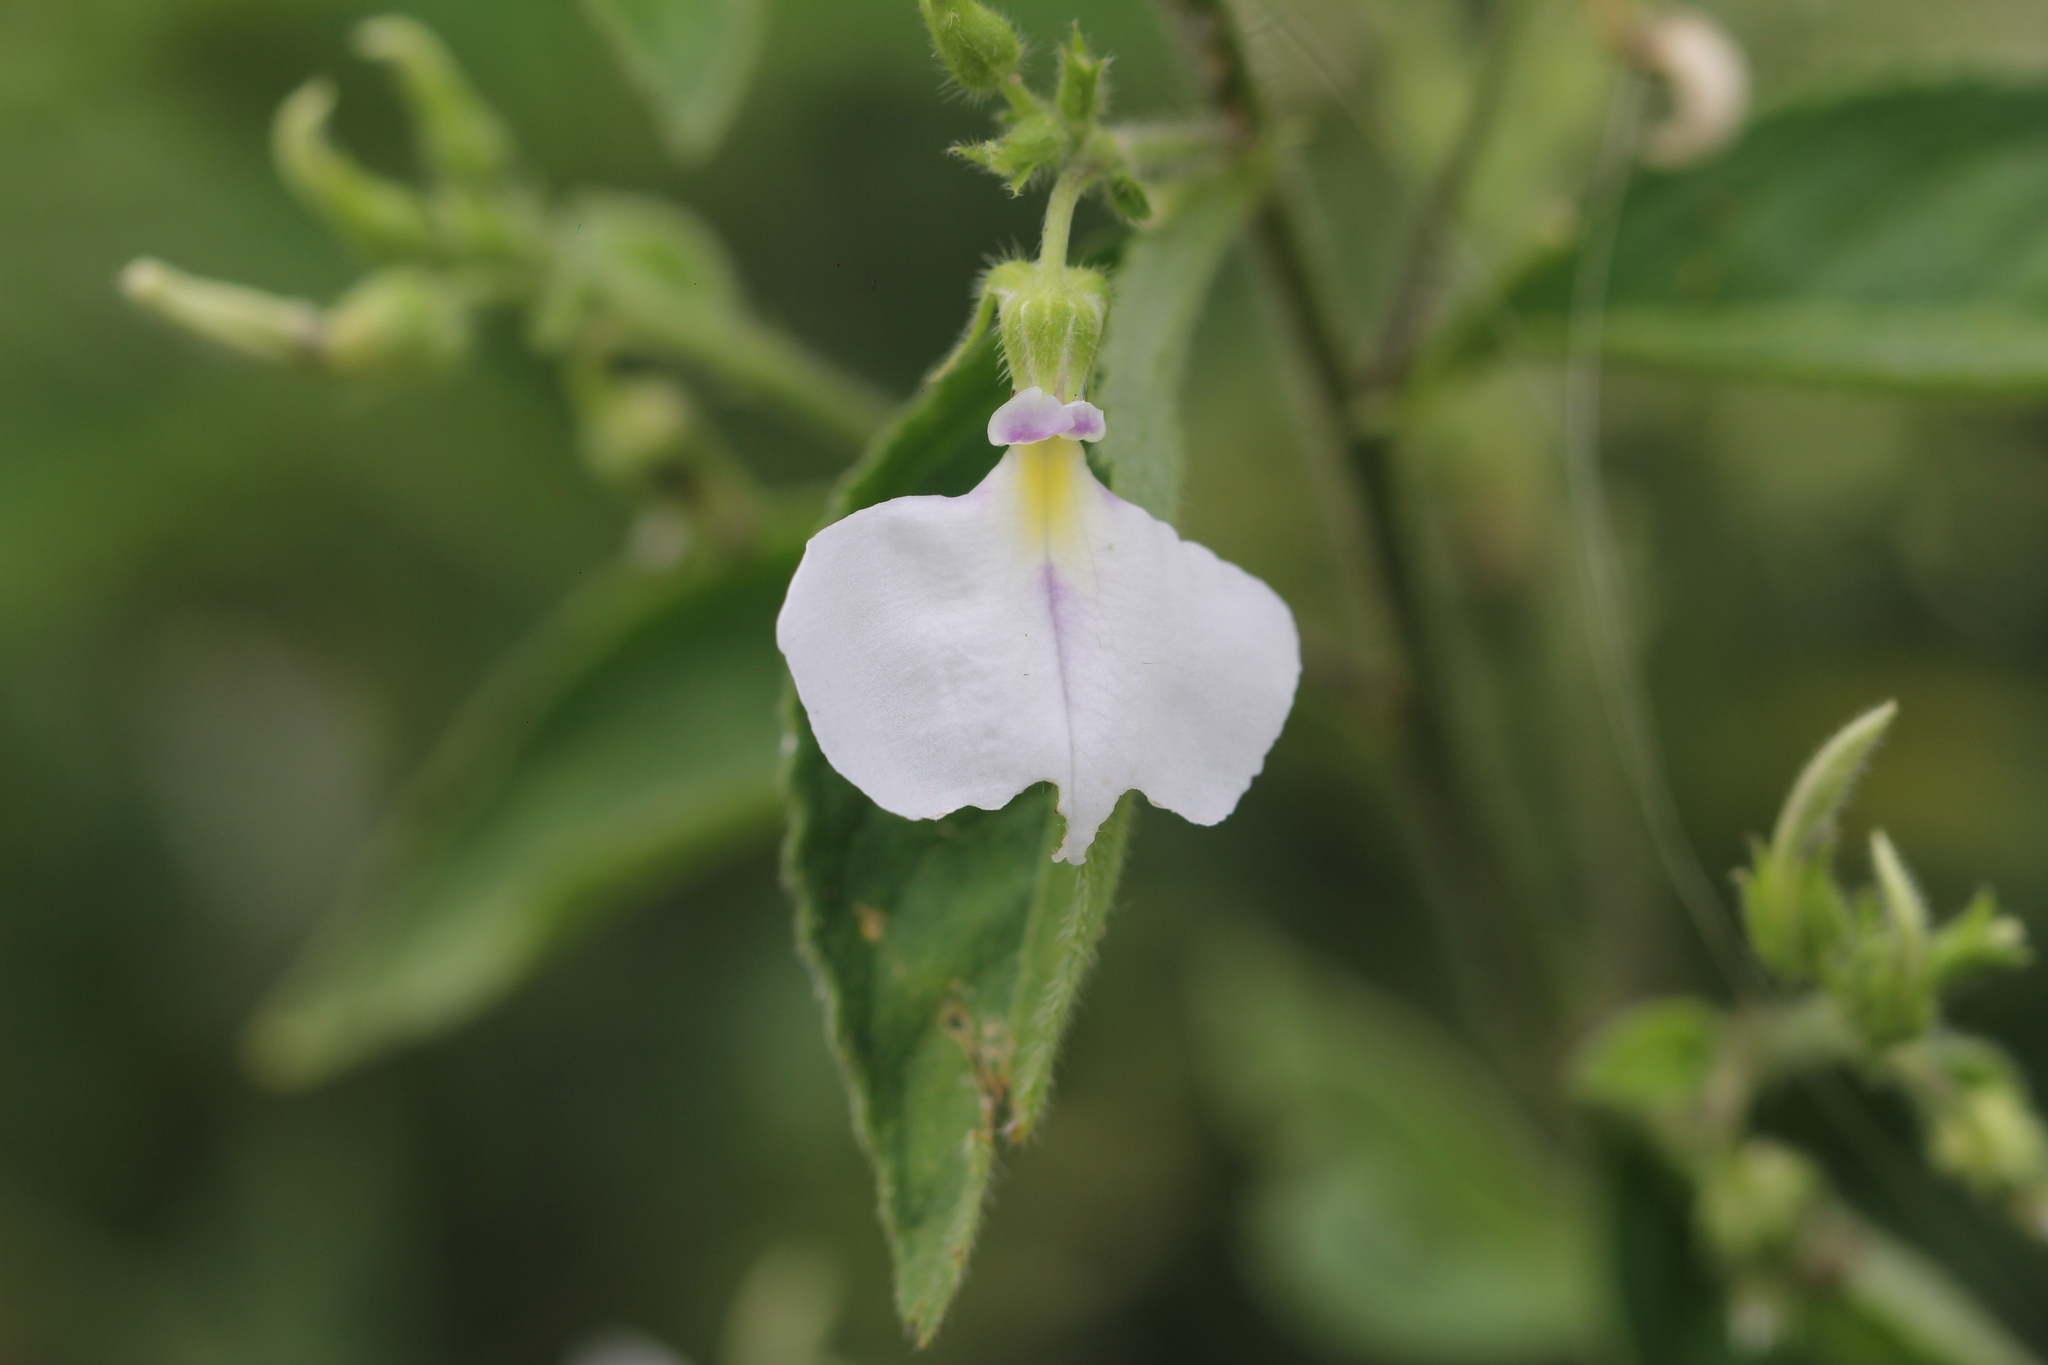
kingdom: Plantae
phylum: Tracheophyta
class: Magnoliopsida
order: Malpighiales
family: Violaceae
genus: Pombalia
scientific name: Pombalia bicolor
